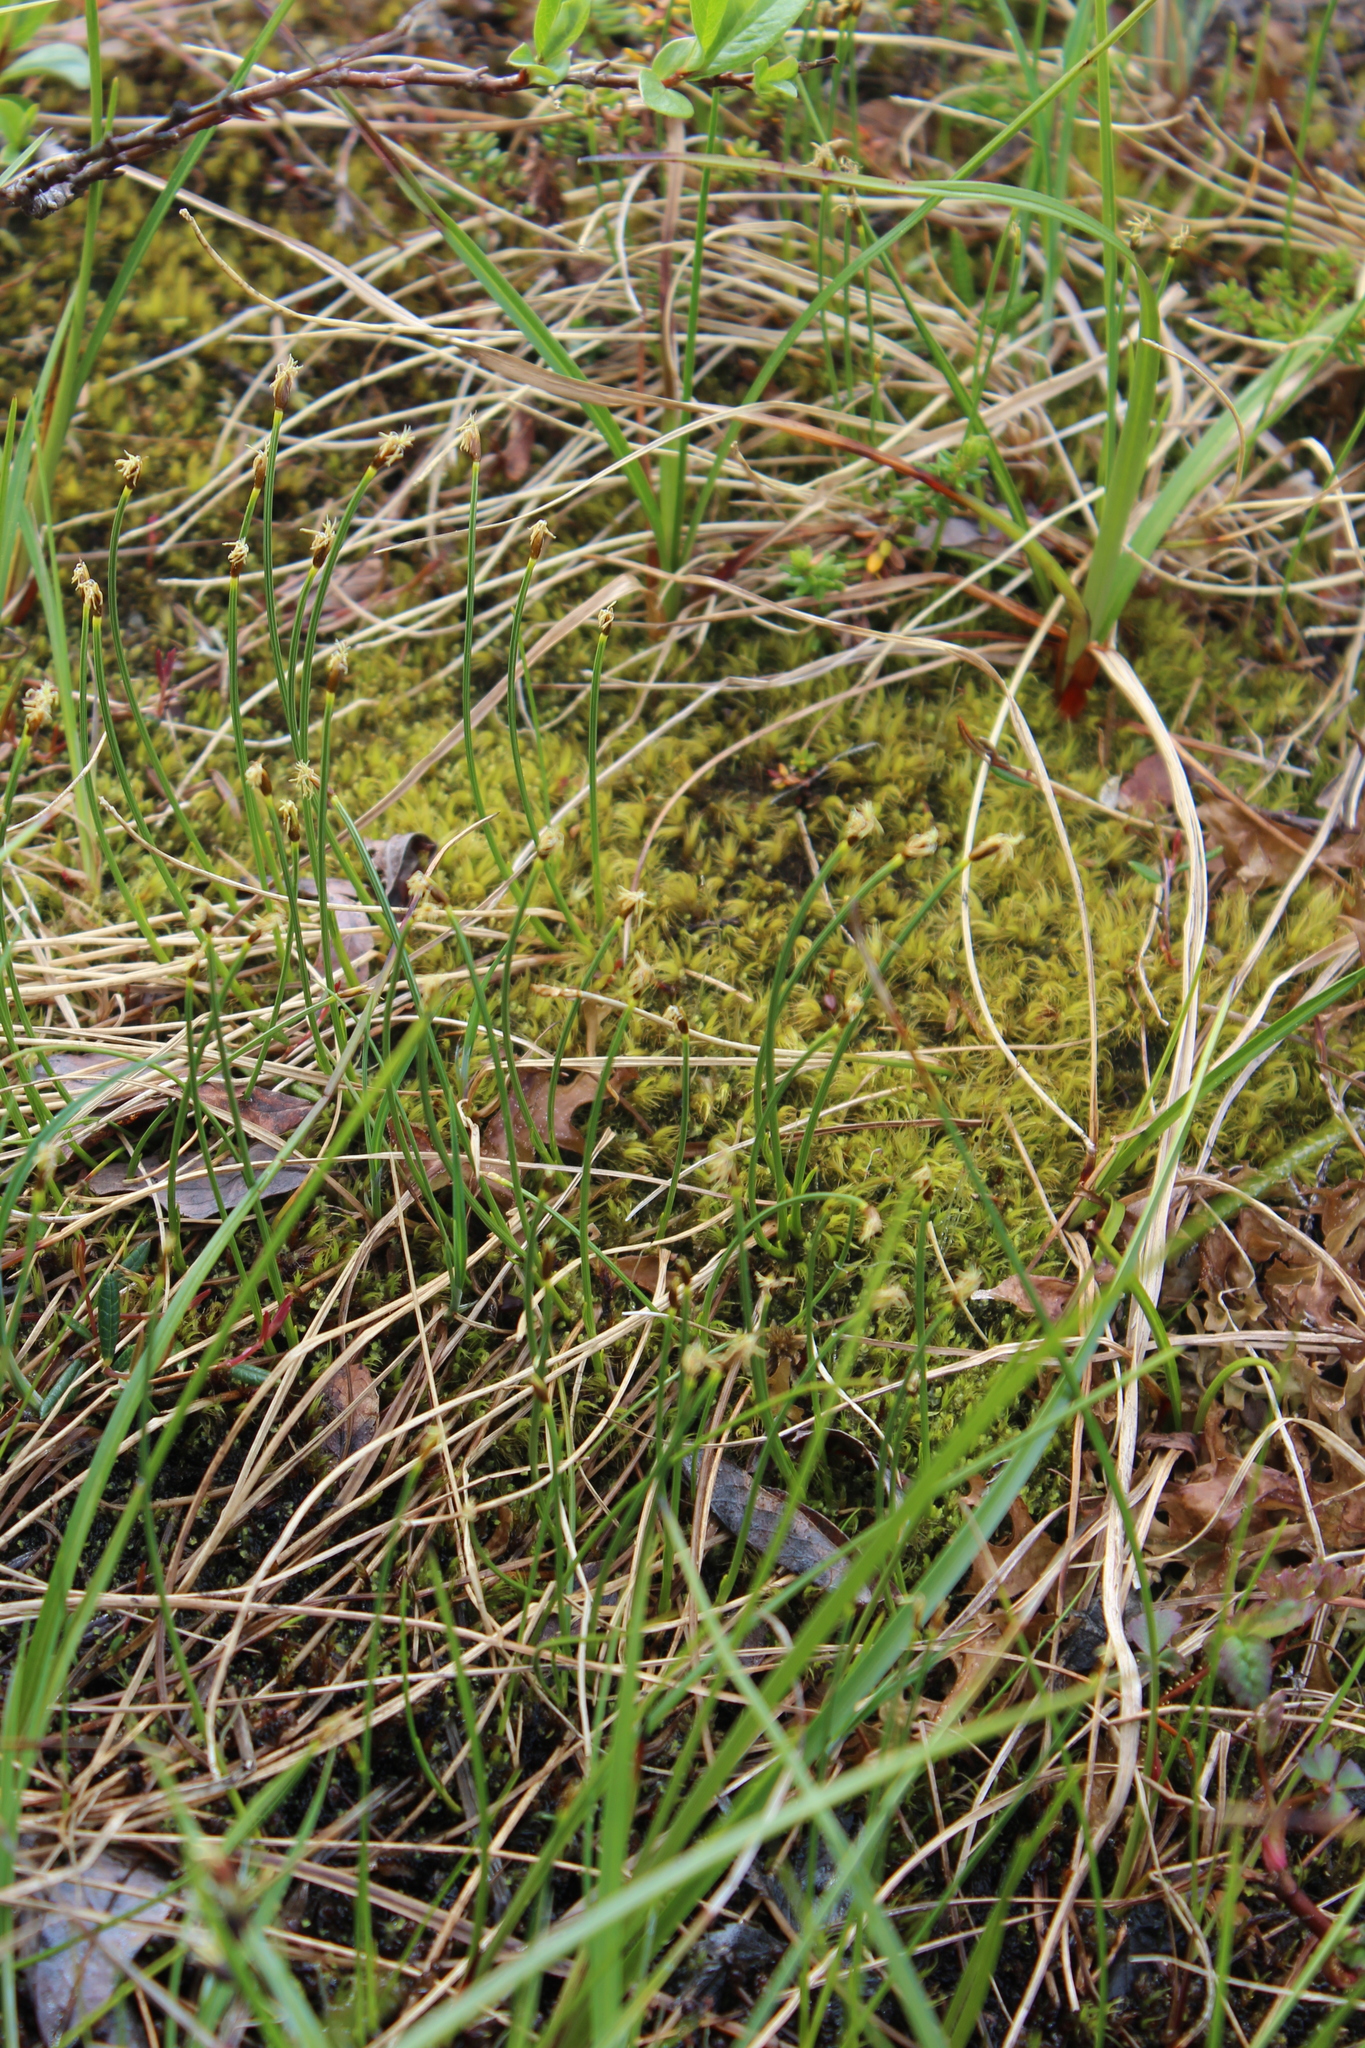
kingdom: Plantae
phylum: Tracheophyta
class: Liliopsida
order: Poales
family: Cyperaceae
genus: Trichophorum
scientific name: Trichophorum cespitosum
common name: Cespitose bulrush
